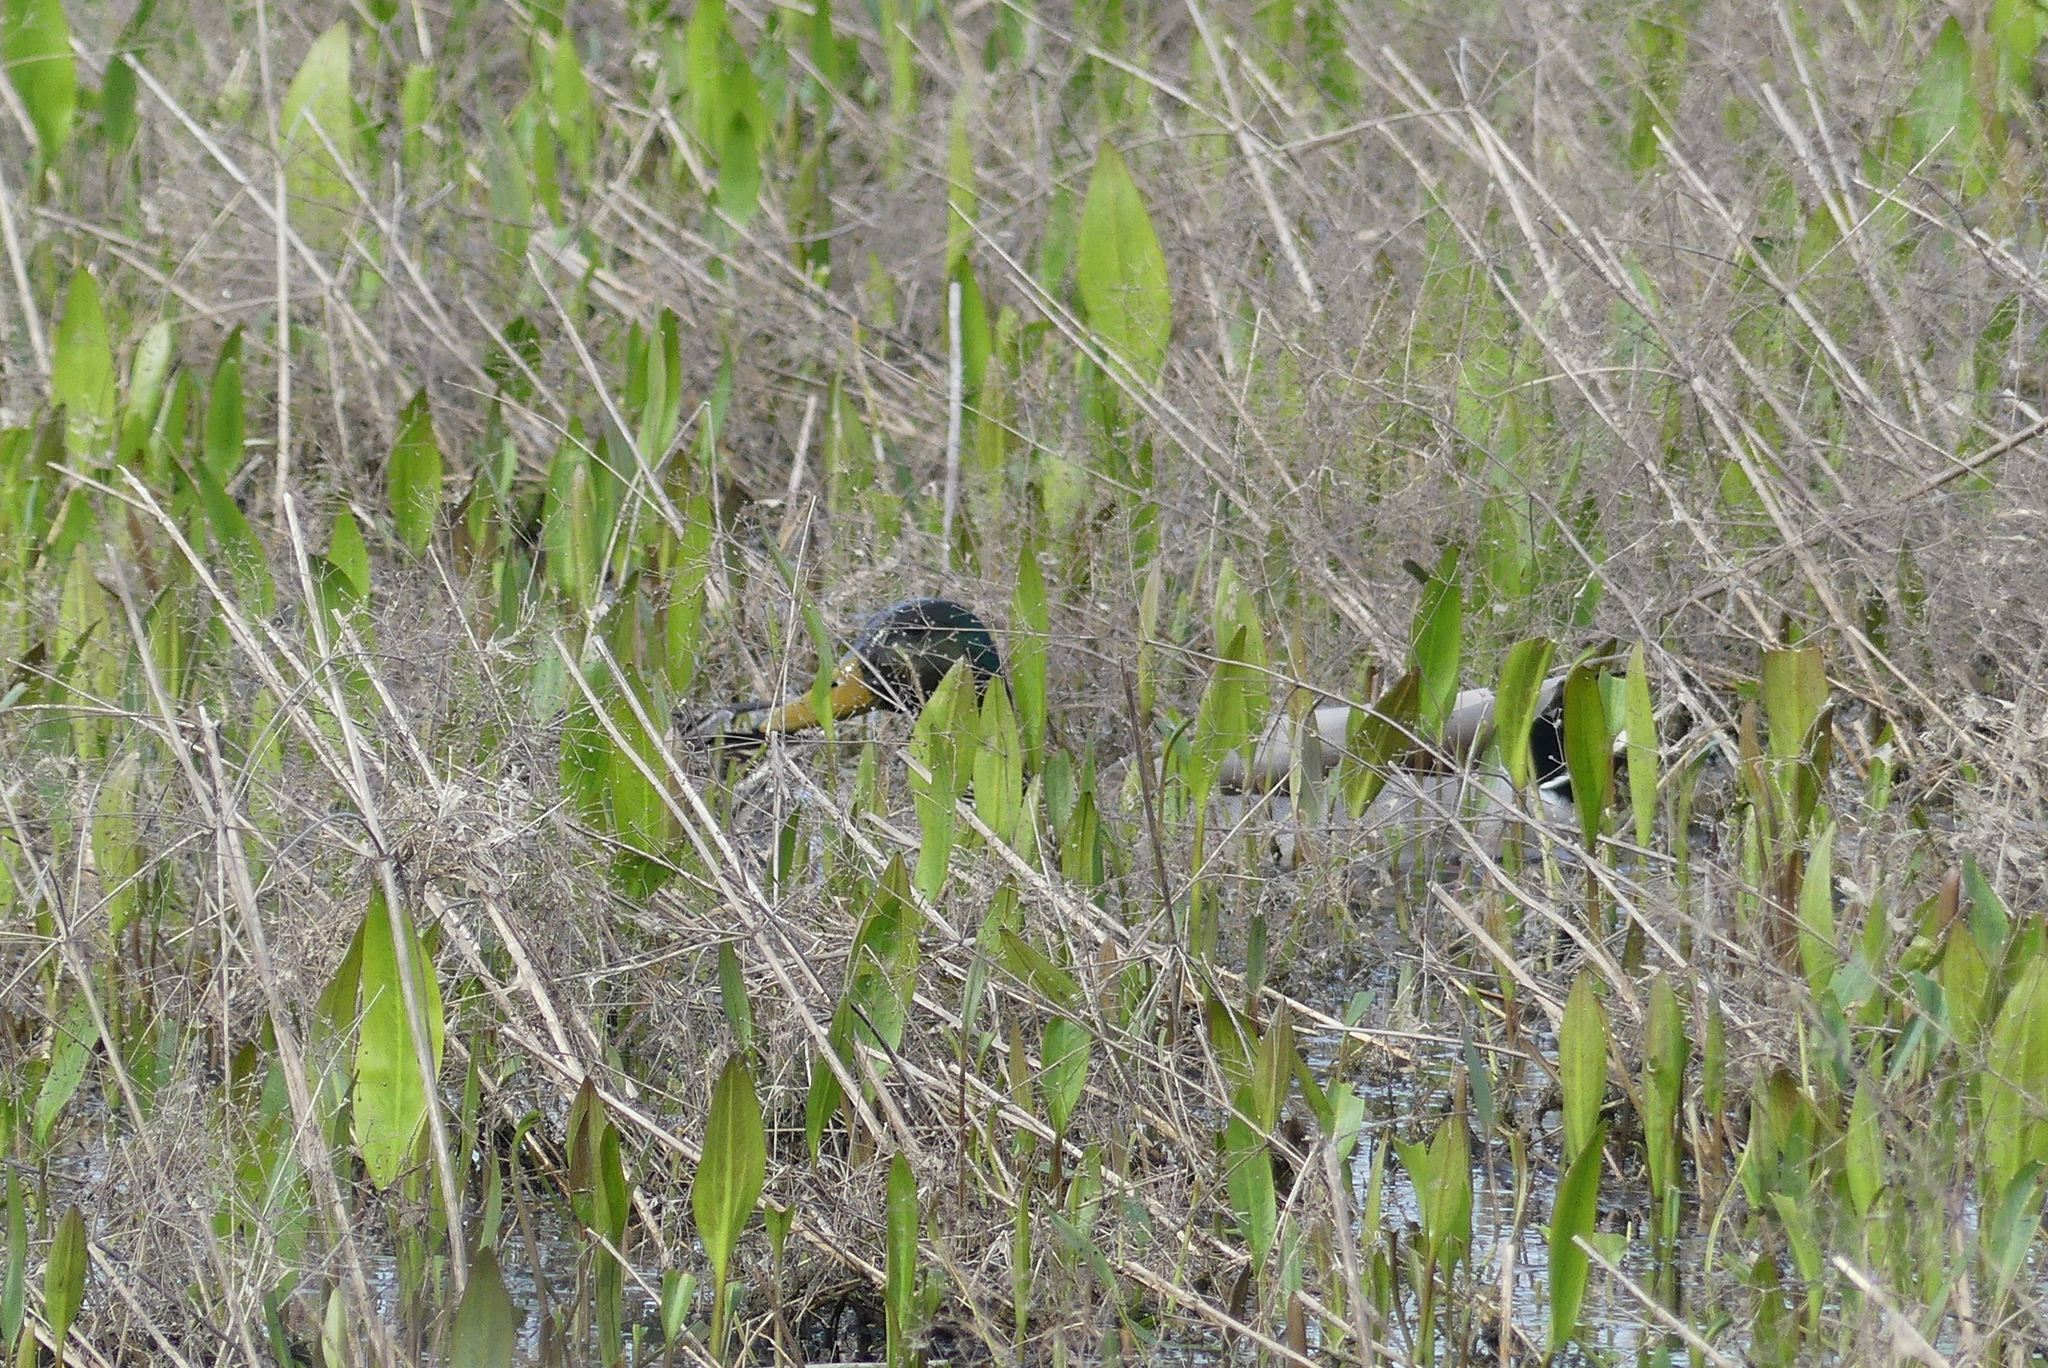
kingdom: Animalia
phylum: Chordata
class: Aves
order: Anseriformes
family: Anatidae
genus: Anas
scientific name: Anas platyrhynchos
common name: Mallard
